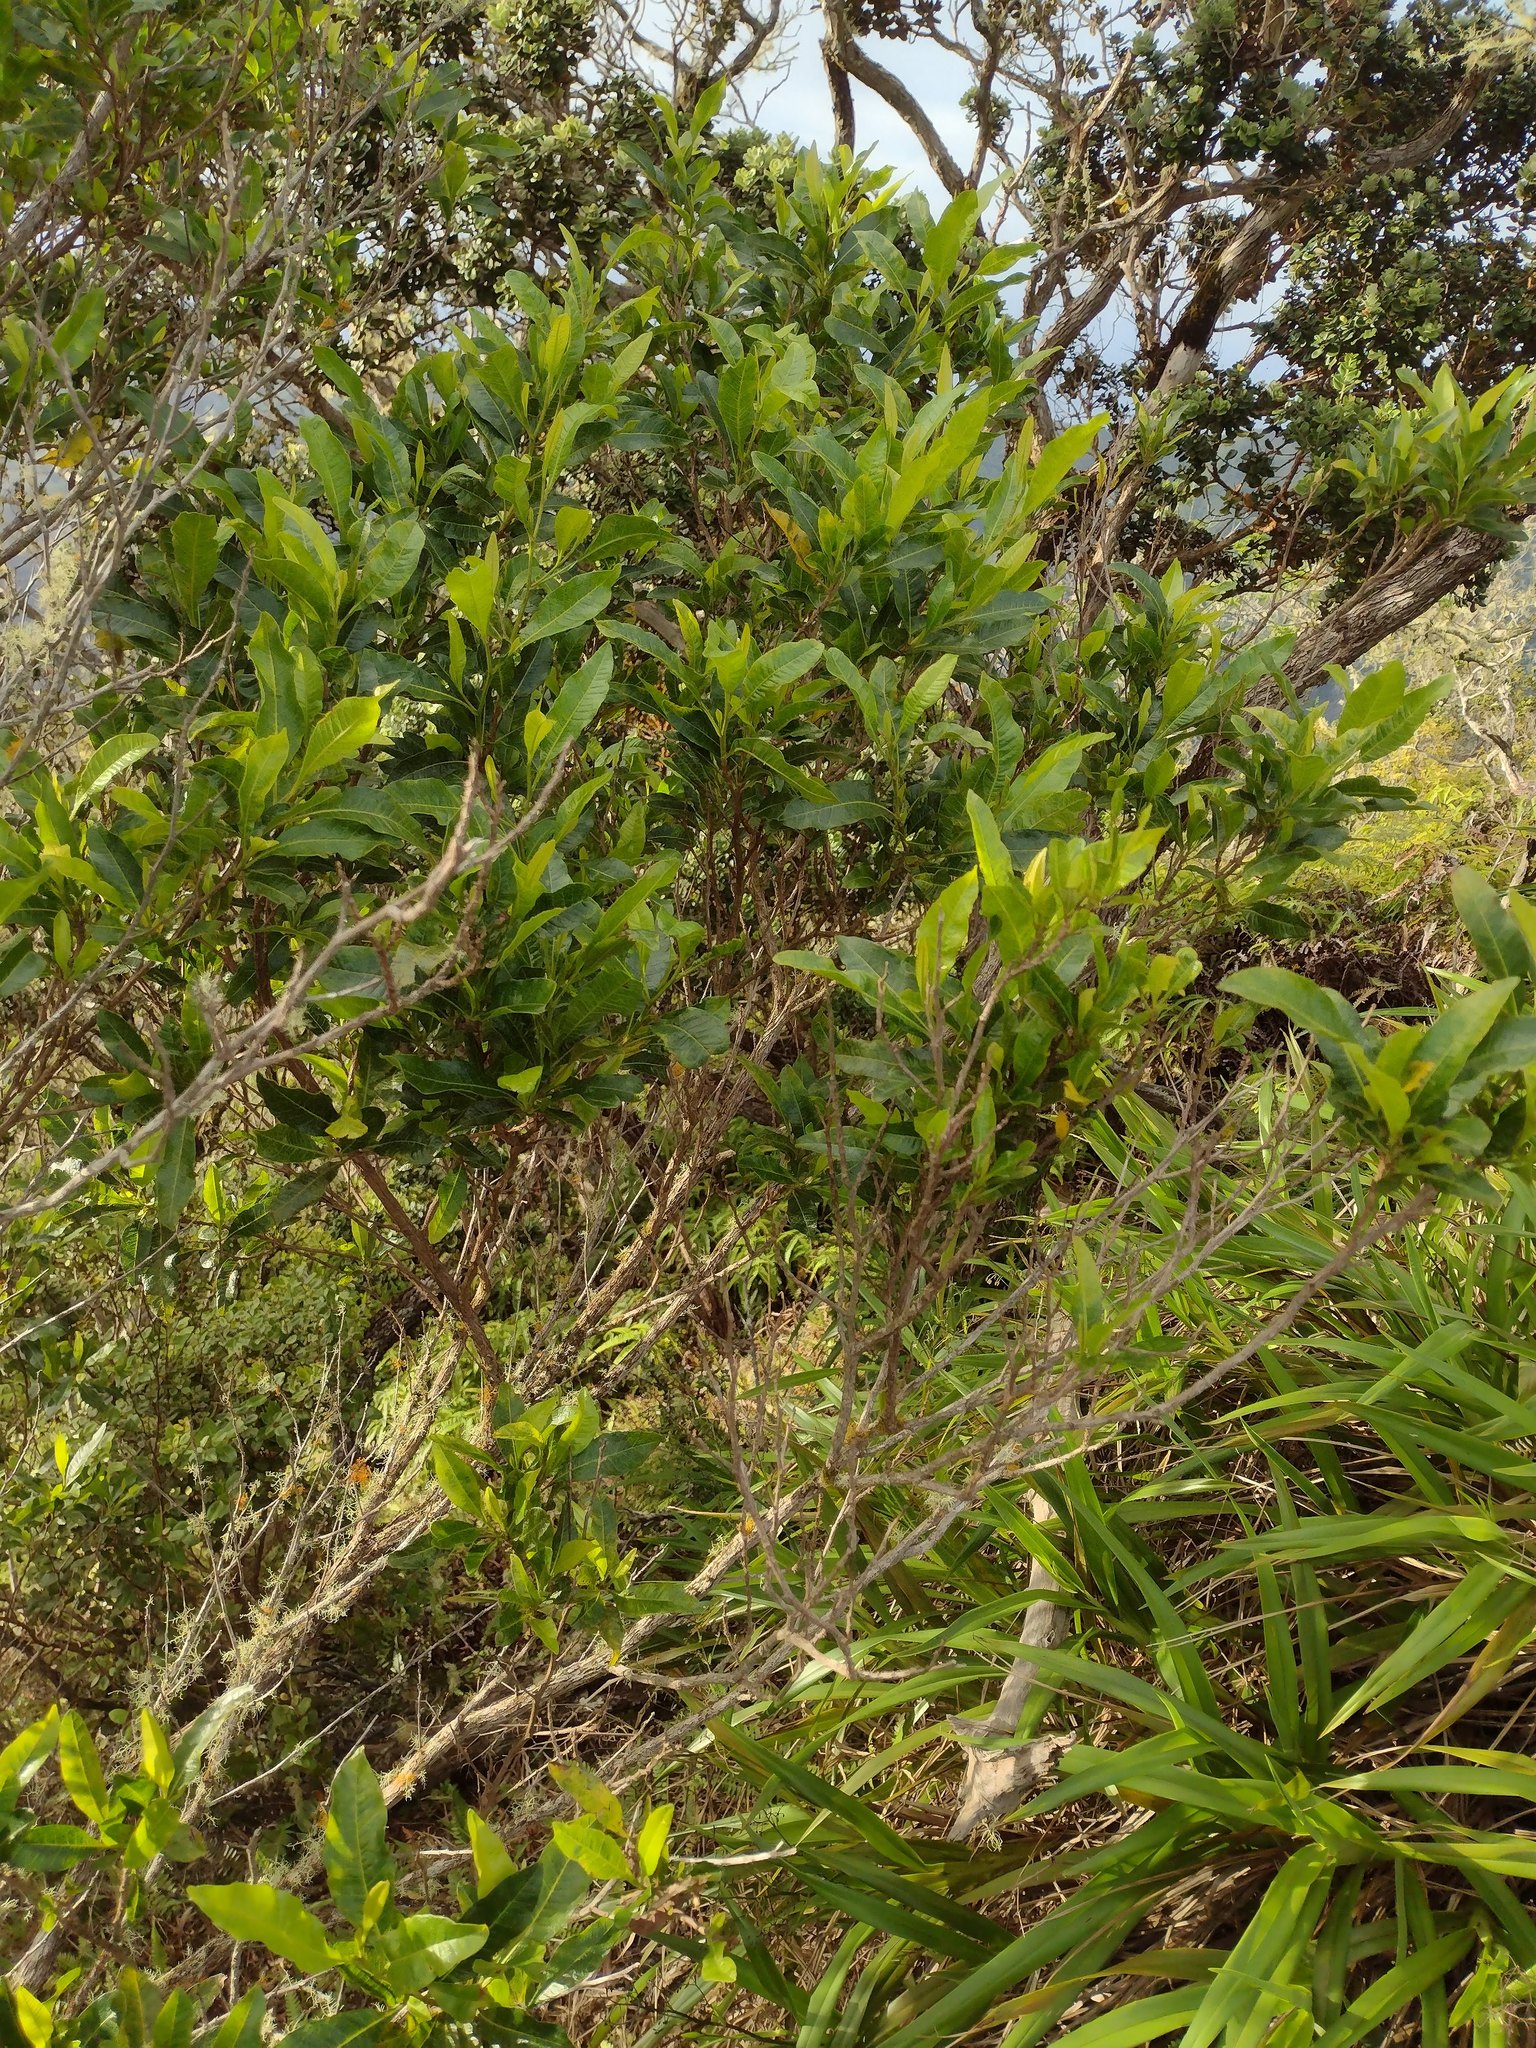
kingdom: Plantae
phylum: Tracheophyta
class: Magnoliopsida
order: Sapindales
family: Sapindaceae
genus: Dodonaea
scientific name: Dodonaea viscosa
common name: Hopbush
